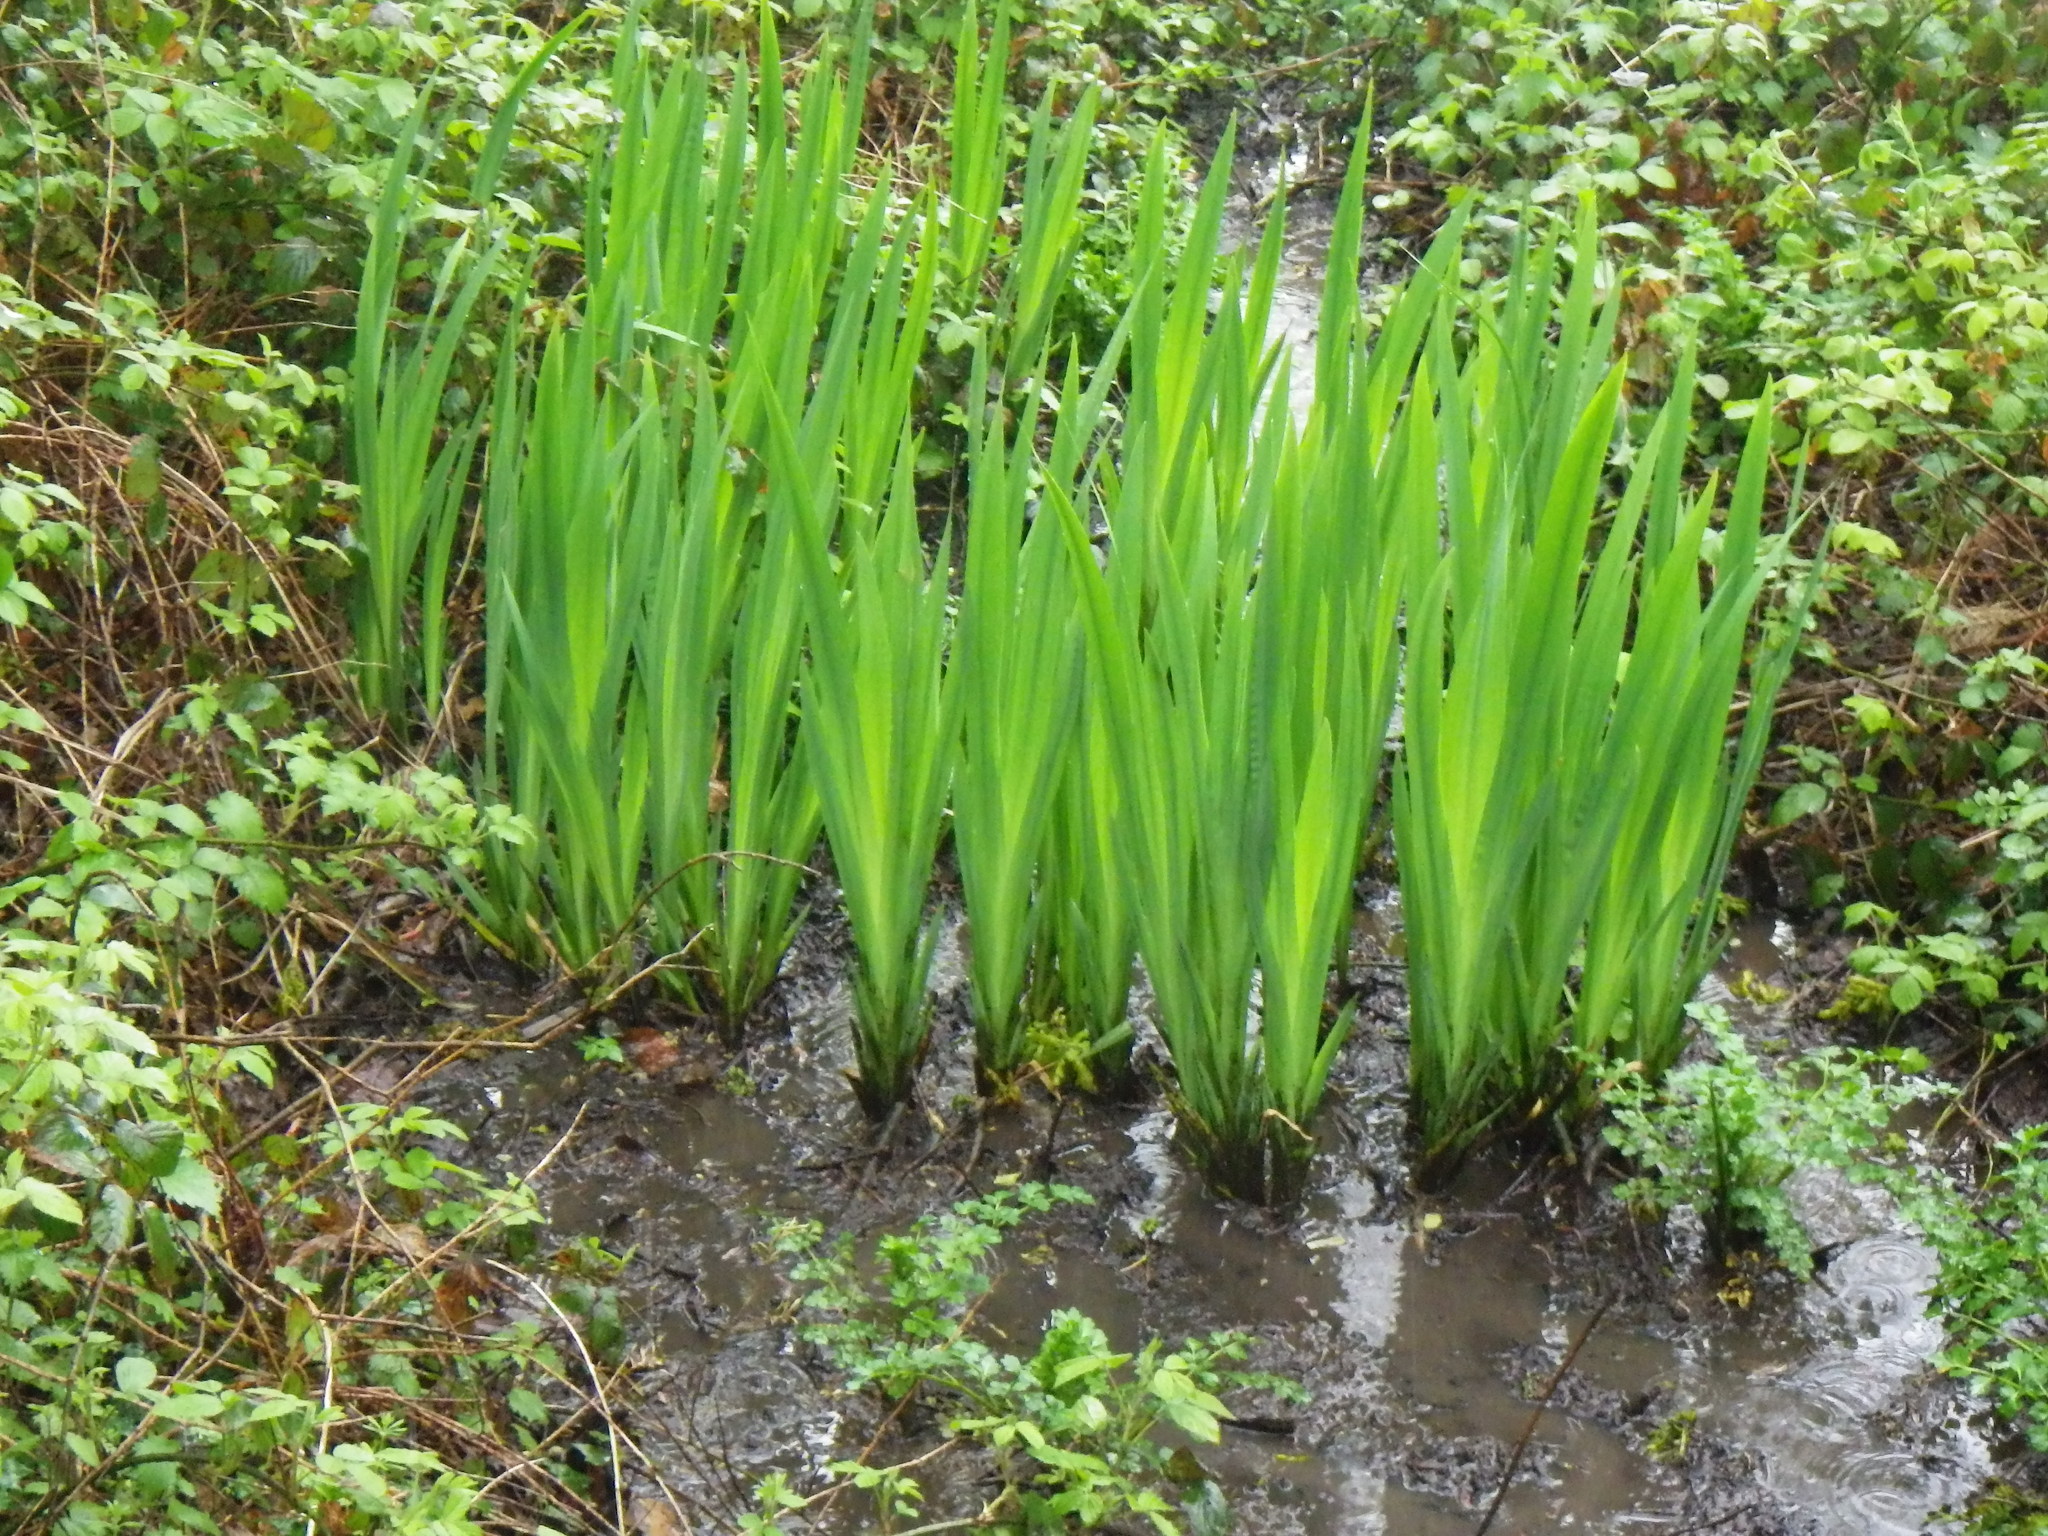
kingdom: Plantae
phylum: Tracheophyta
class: Liliopsida
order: Asparagales
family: Iridaceae
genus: Iris
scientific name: Iris pseudacorus
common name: Yellow flag
